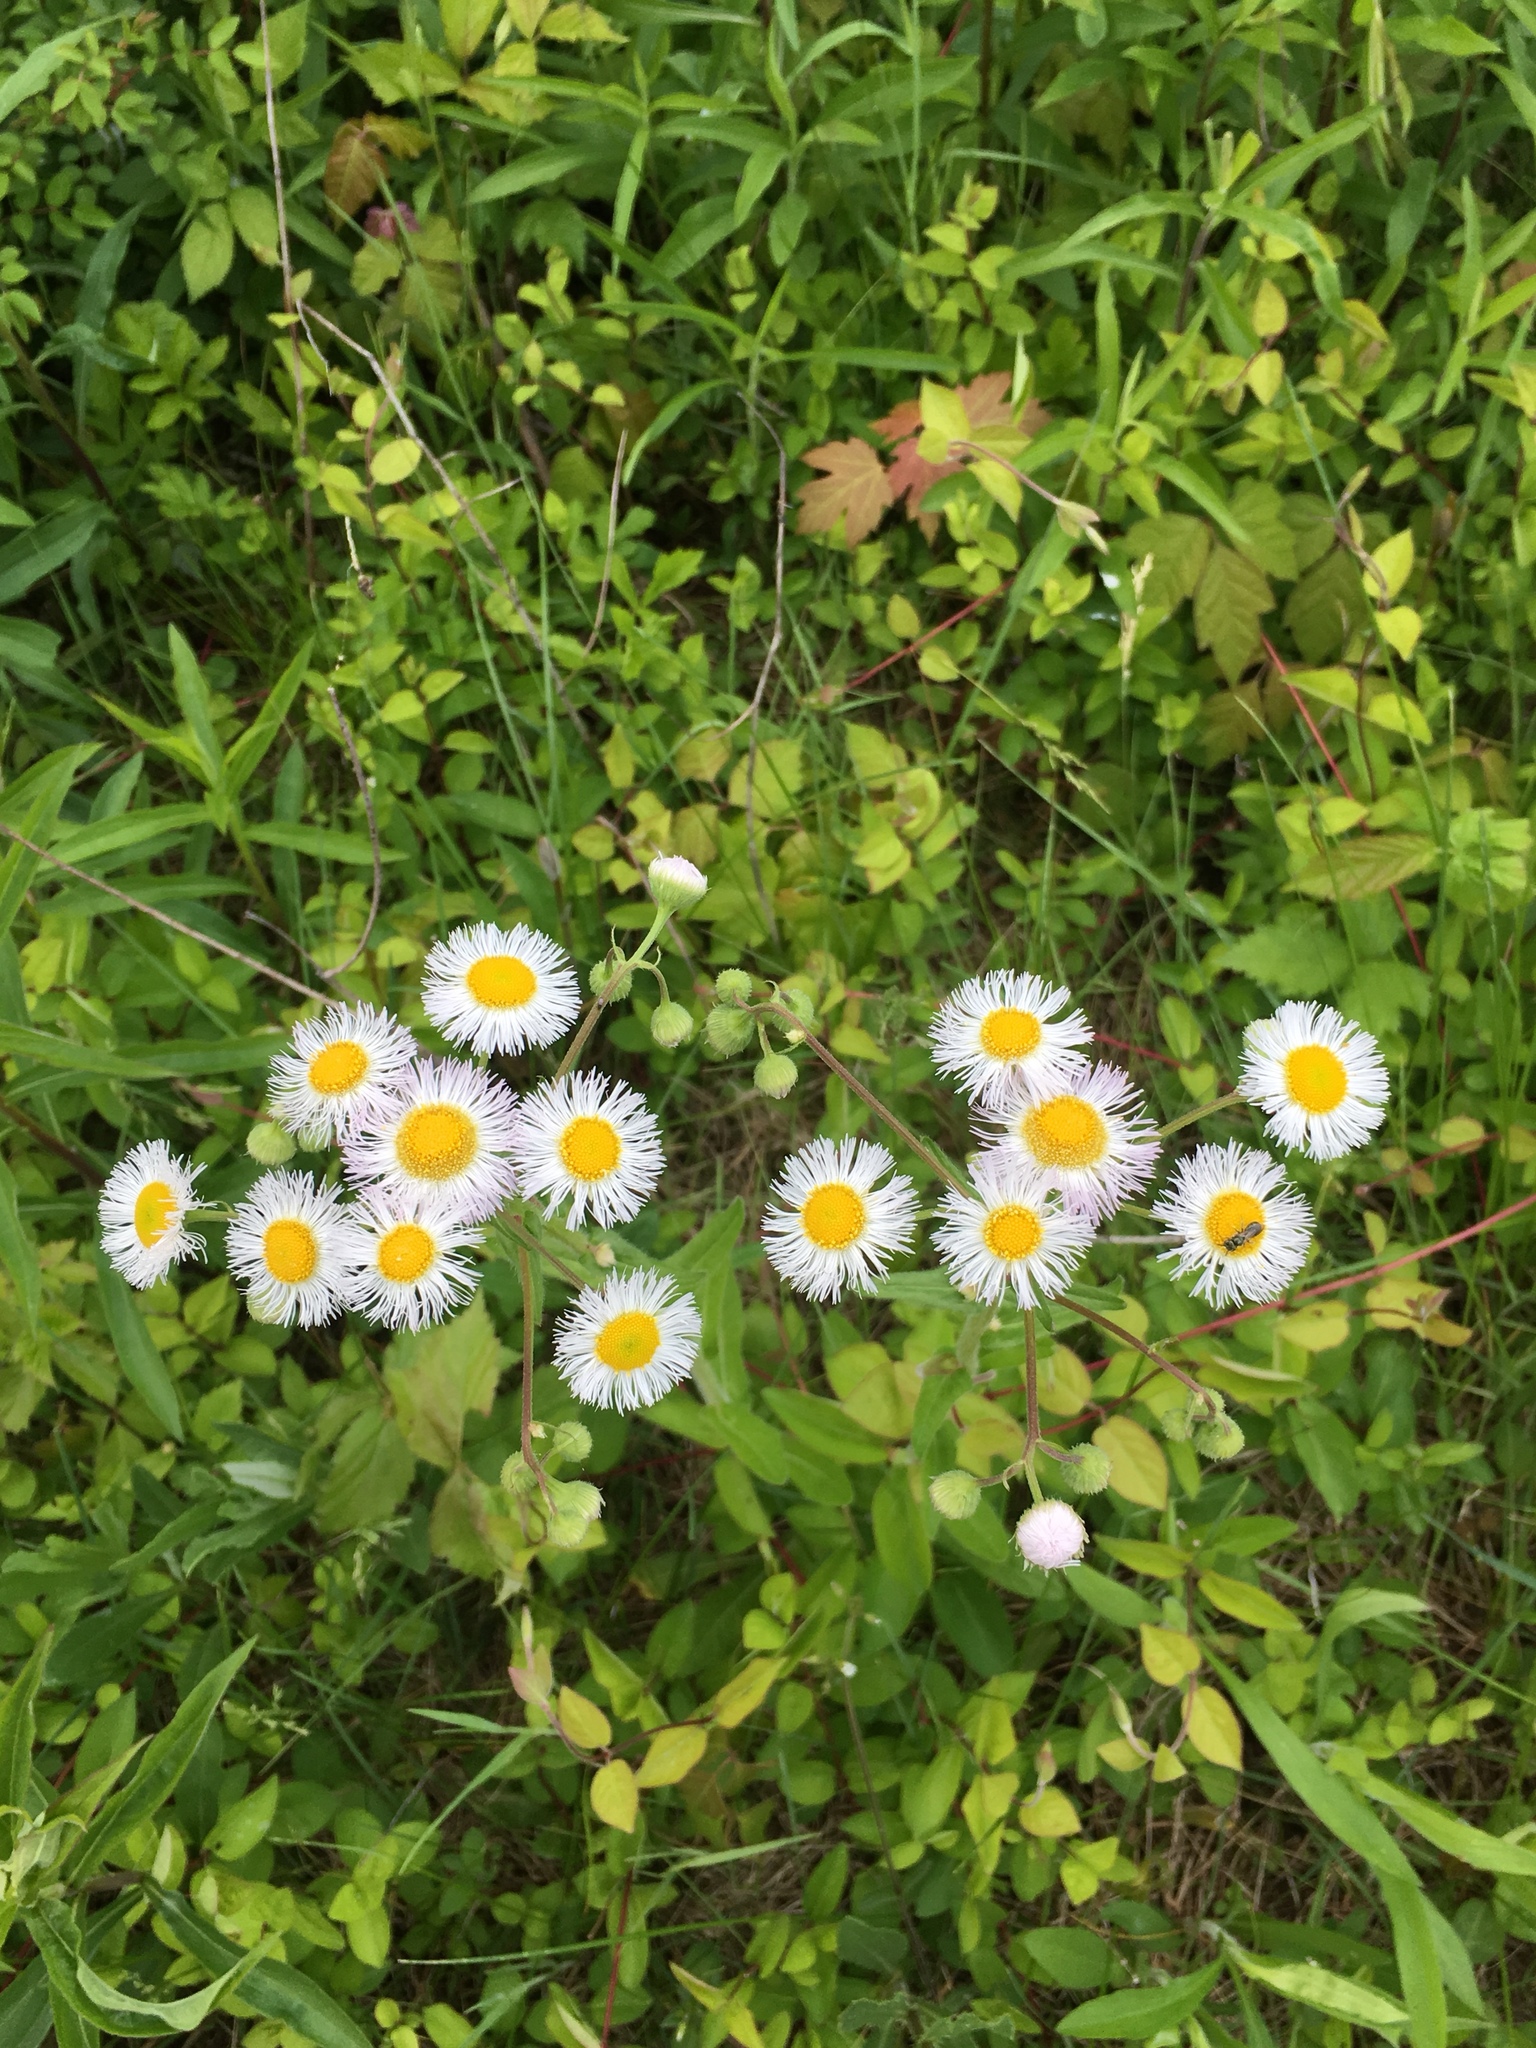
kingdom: Plantae
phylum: Tracheophyta
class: Magnoliopsida
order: Asterales
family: Asteraceae
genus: Erigeron
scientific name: Erigeron philadelphicus
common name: Robin's-plantain
